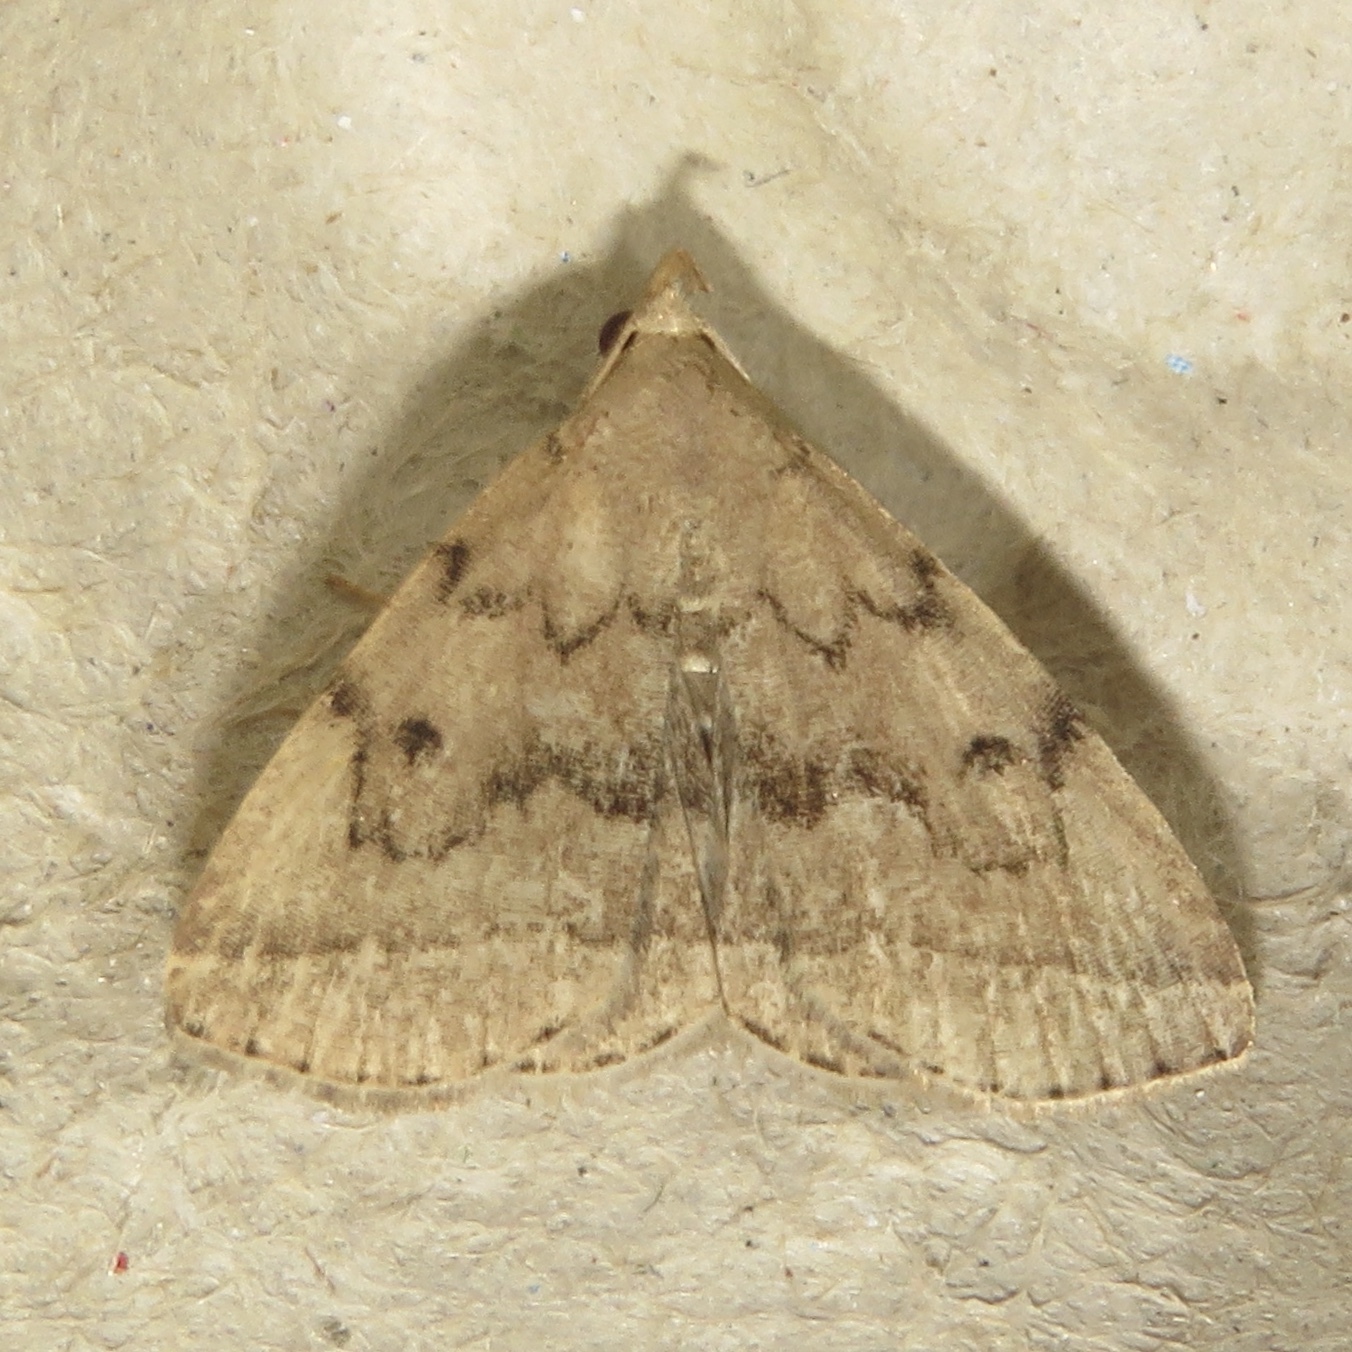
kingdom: Animalia
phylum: Arthropoda
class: Insecta
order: Lepidoptera
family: Erebidae
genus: Zanclognatha
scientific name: Zanclognatha dentata
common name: Toothed fan-foot
